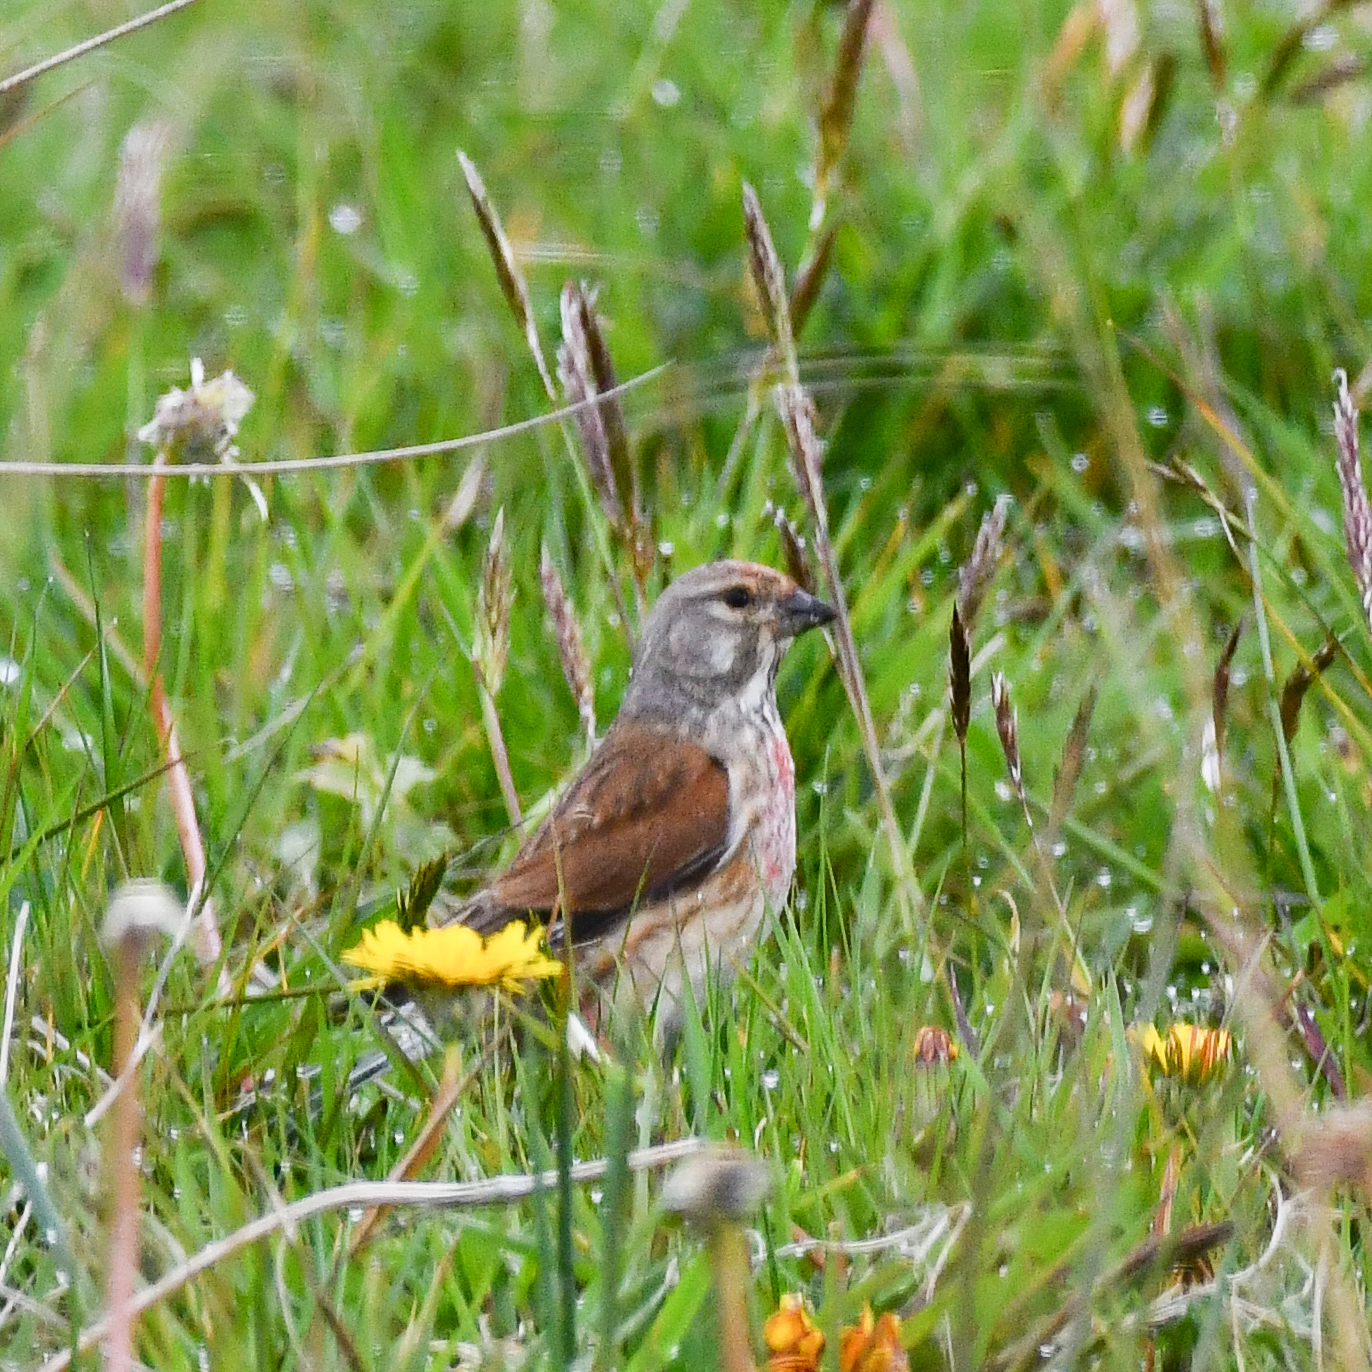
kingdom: Animalia
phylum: Chordata
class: Aves
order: Passeriformes
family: Fringillidae
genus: Linaria
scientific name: Linaria cannabina
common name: Common linnet
